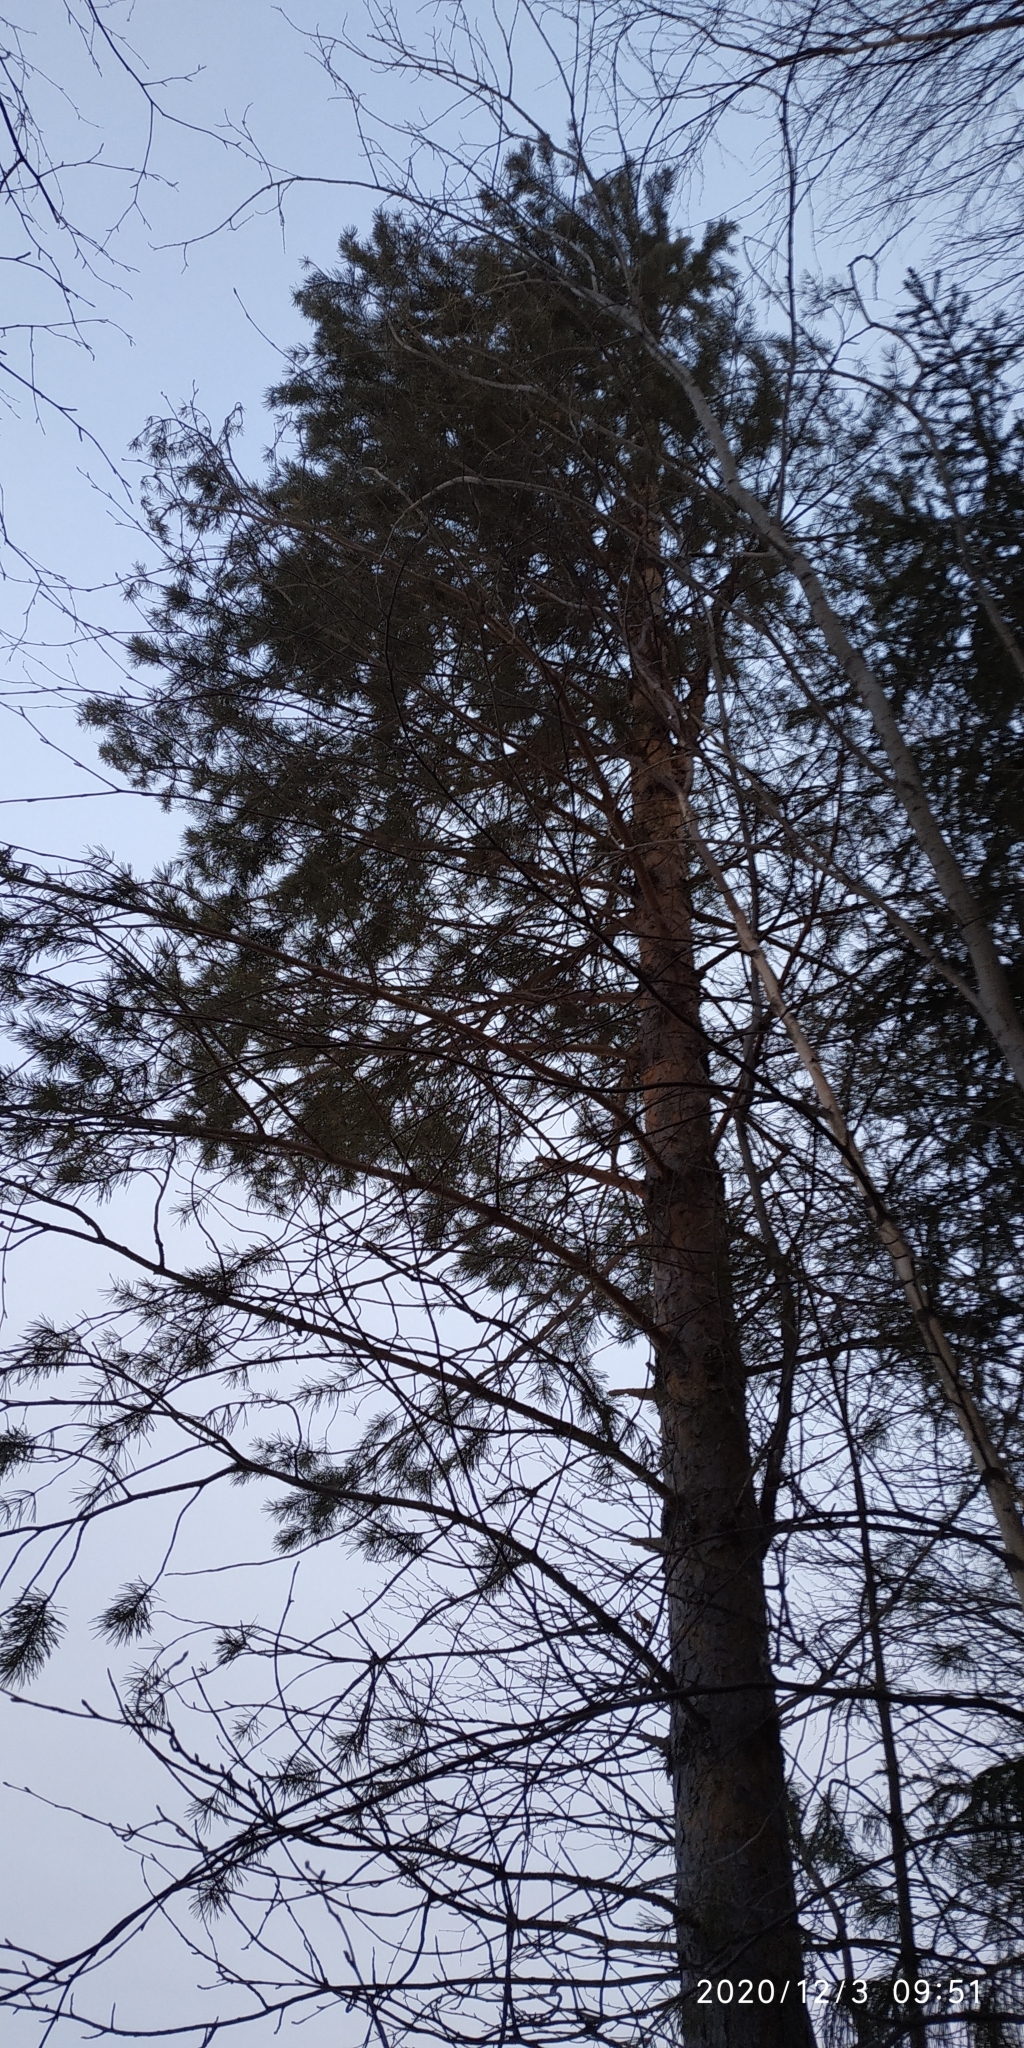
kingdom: Plantae
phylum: Tracheophyta
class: Pinopsida
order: Pinales
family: Pinaceae
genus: Pinus
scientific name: Pinus sylvestris
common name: Scots pine
